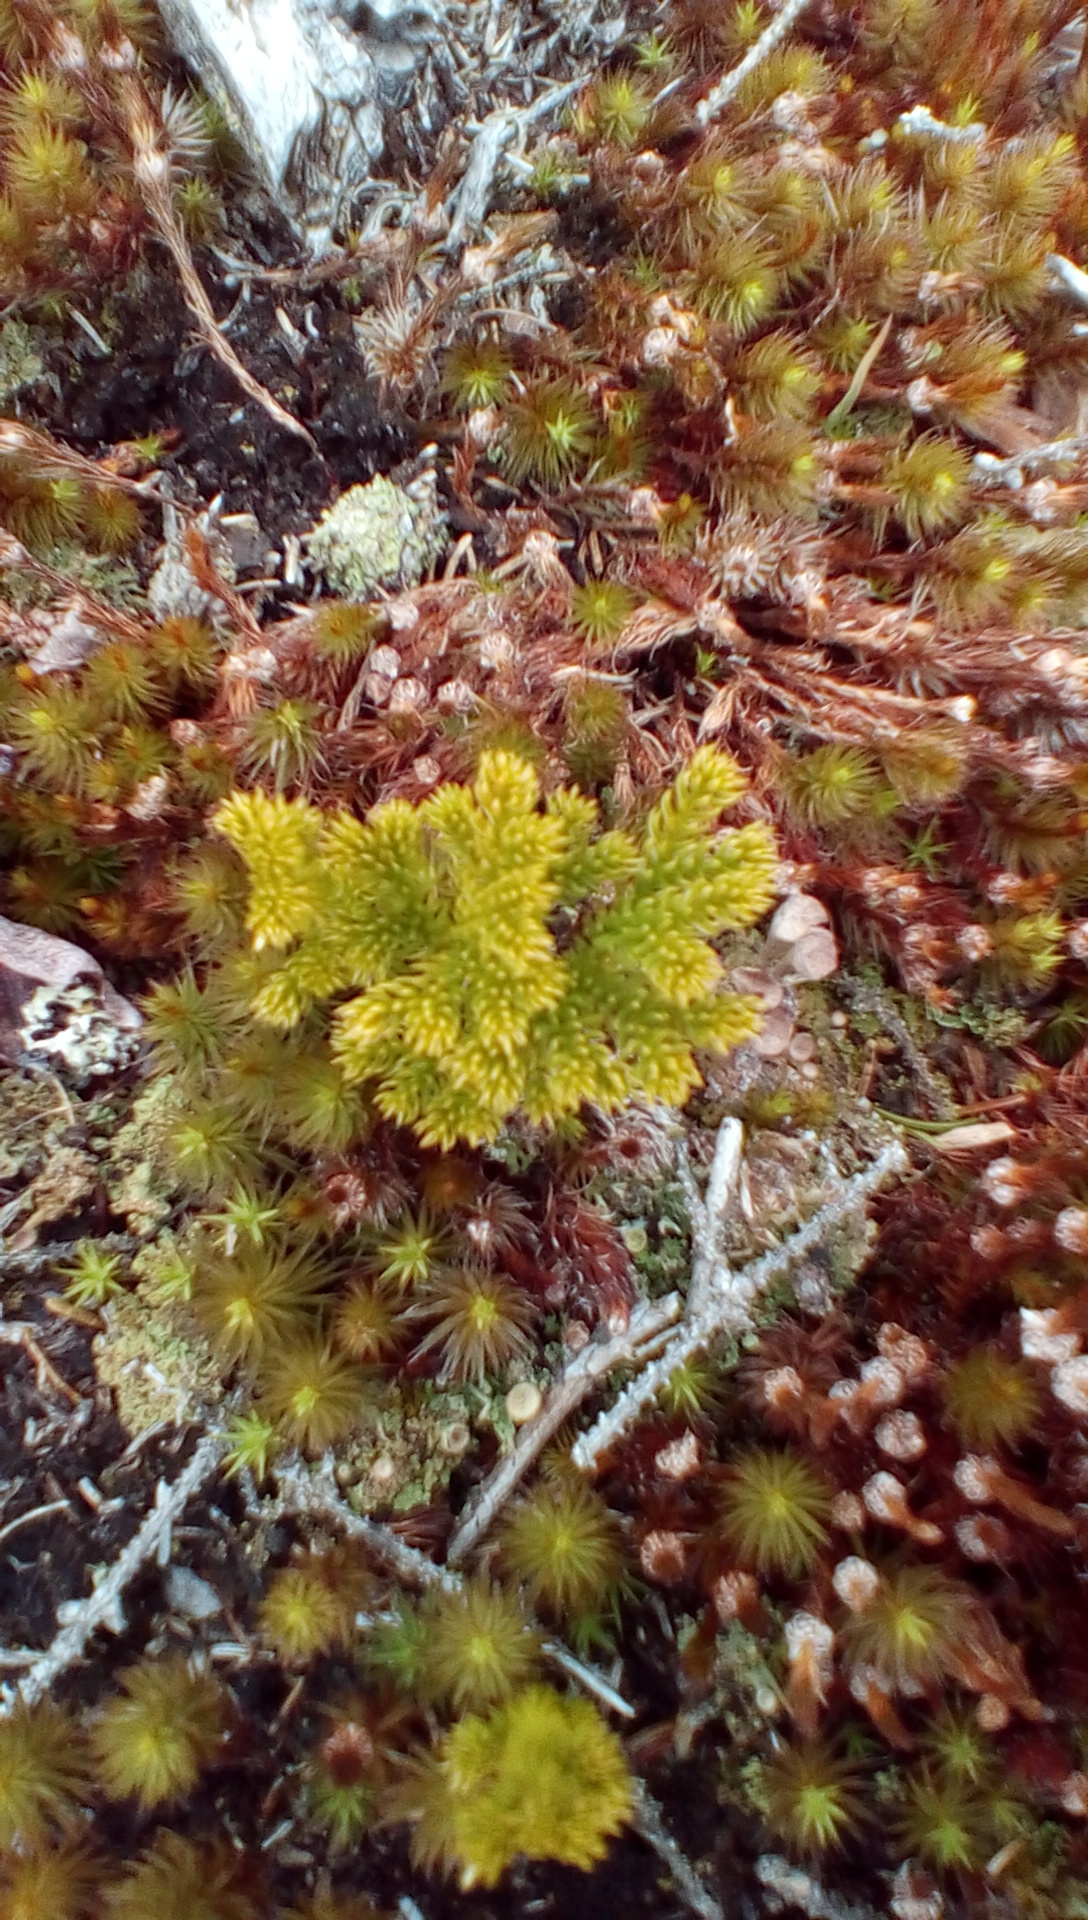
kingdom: Plantae
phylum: Tracheophyta
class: Lycopodiopsida
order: Lycopodiales
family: Lycopodiaceae
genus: Dendrolycopodium
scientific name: Dendrolycopodium hickeyi
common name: Hickey's clubmoss
